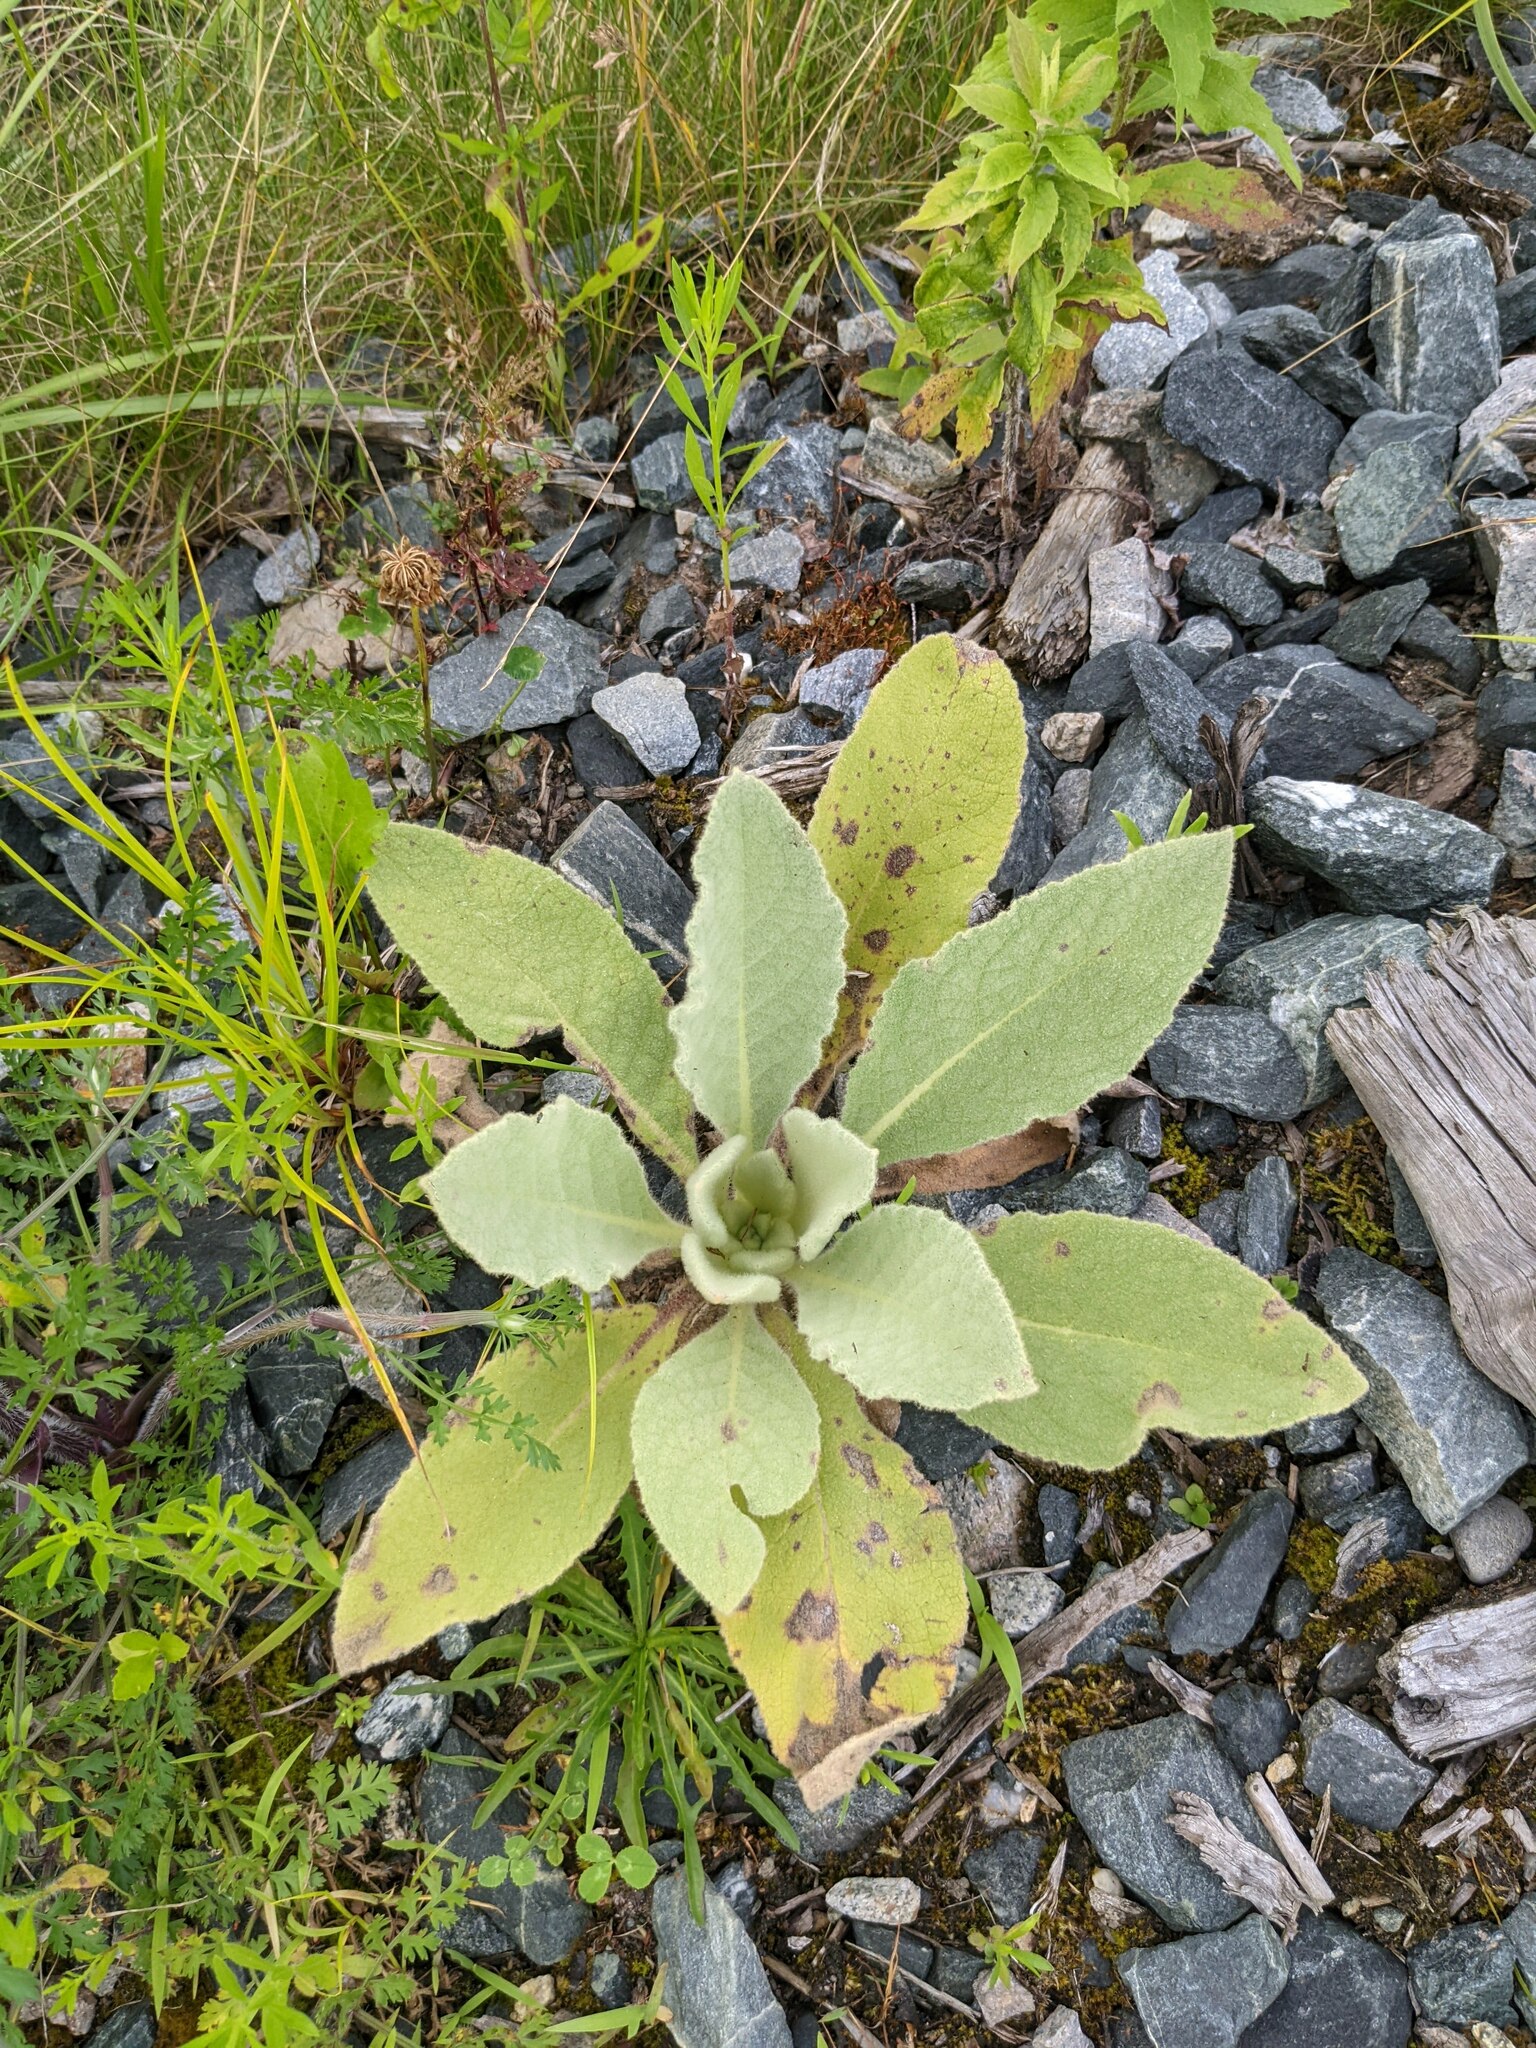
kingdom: Plantae
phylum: Tracheophyta
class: Magnoliopsida
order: Lamiales
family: Scrophulariaceae
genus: Verbascum
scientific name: Verbascum thapsus
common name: Common mullein
